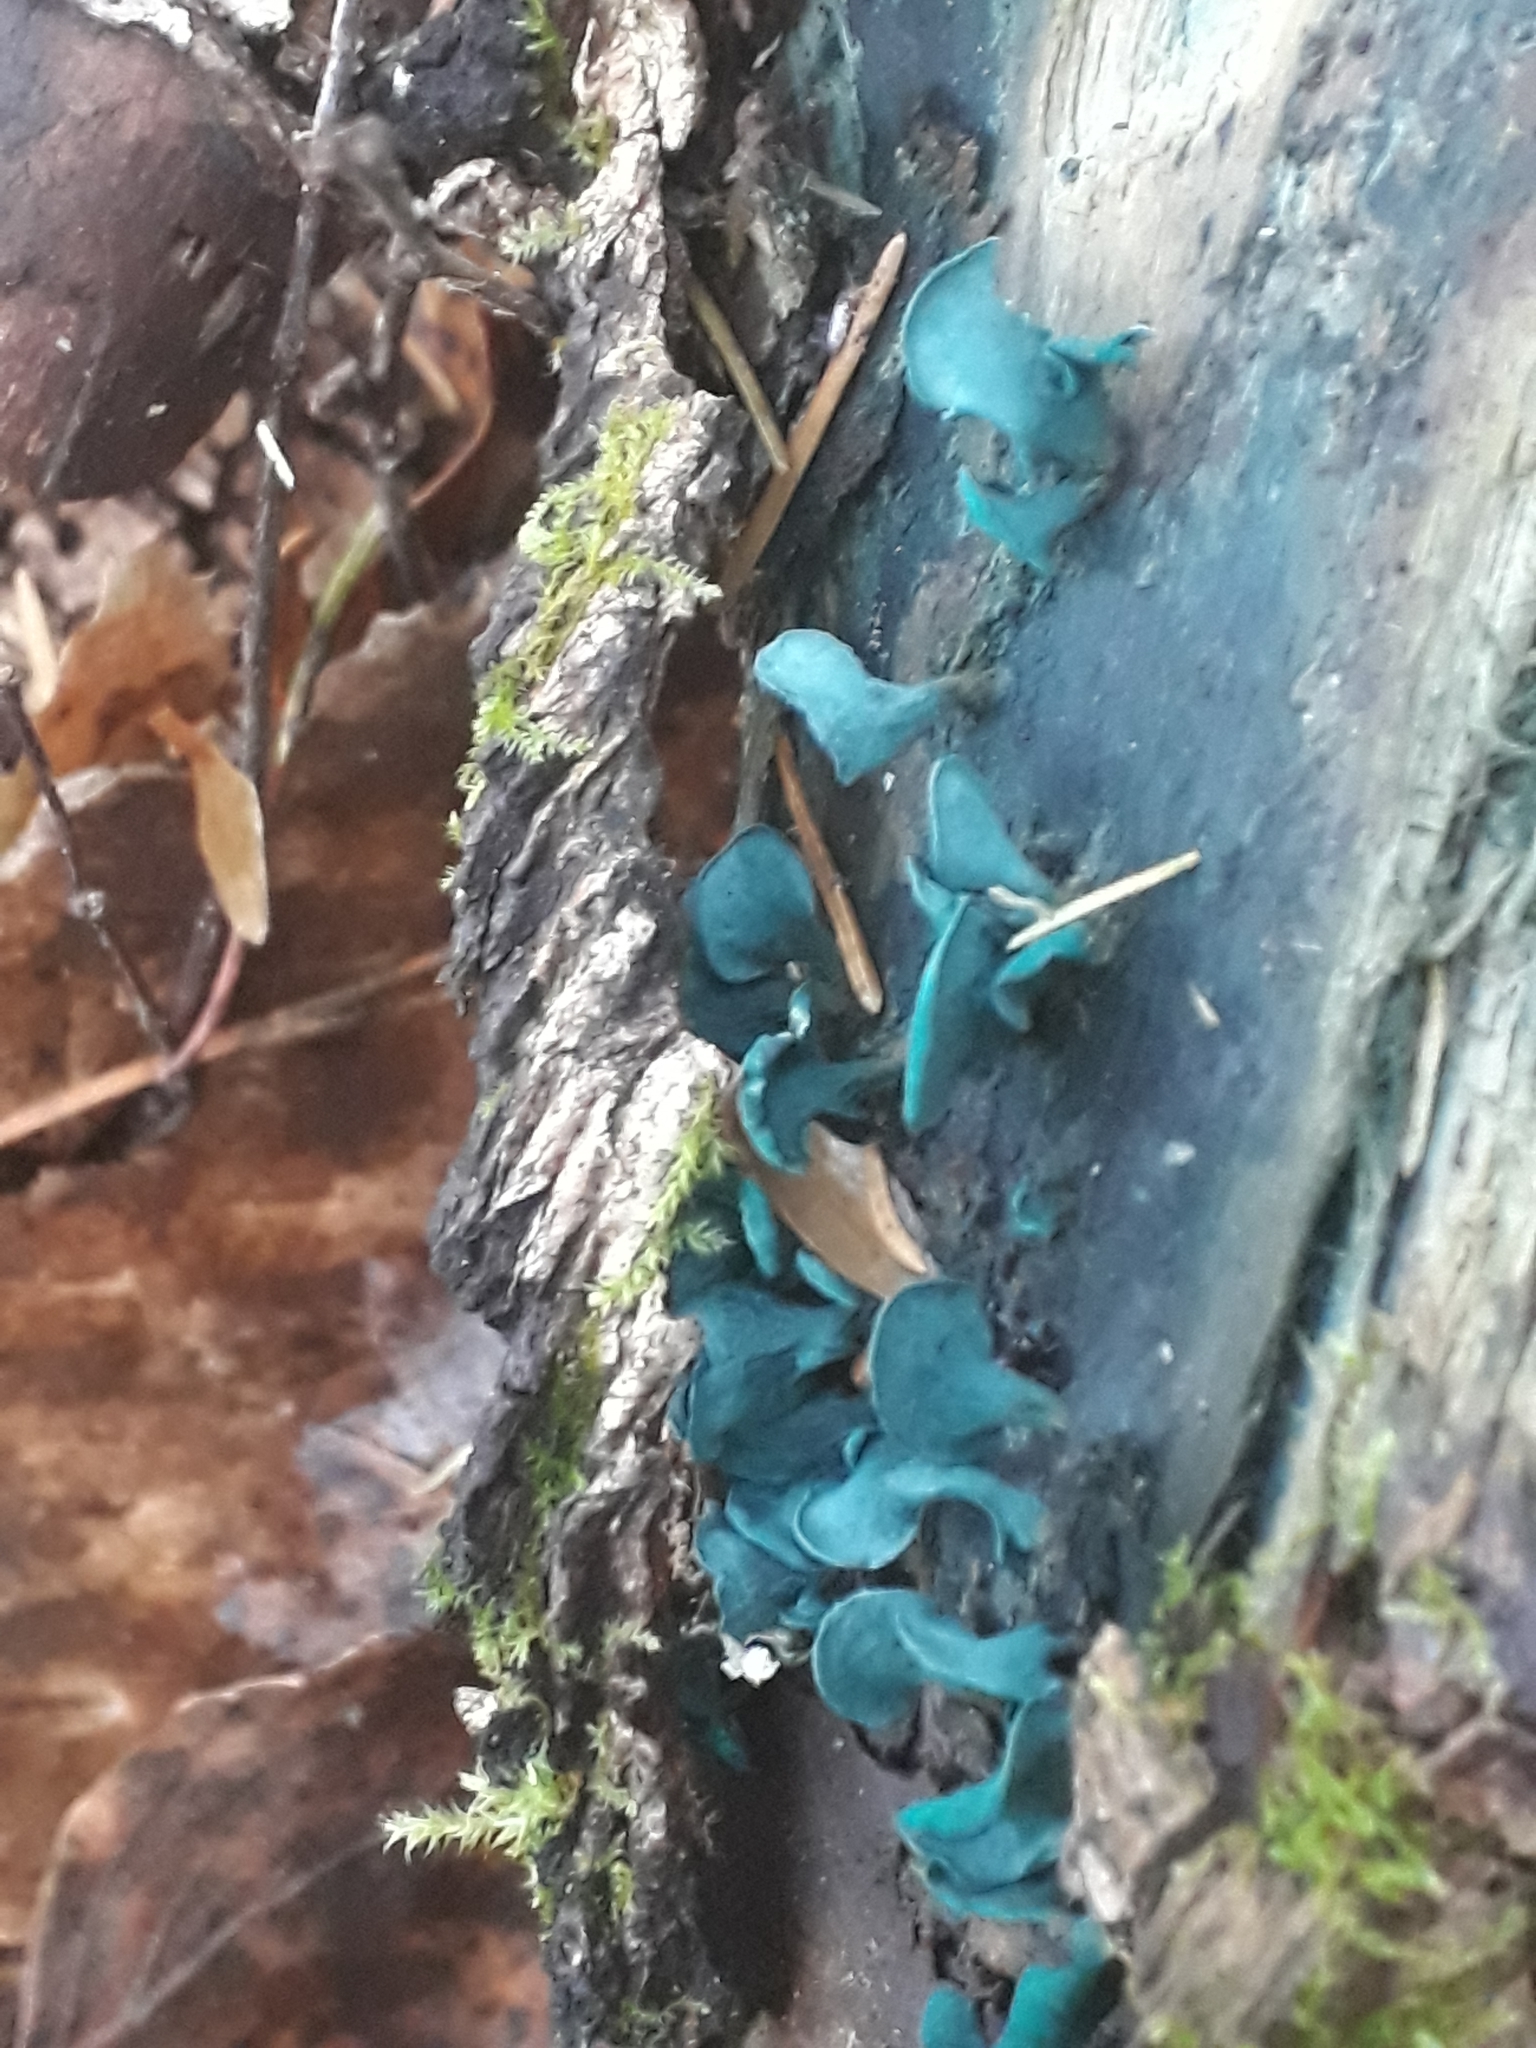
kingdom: Fungi
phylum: Ascomycota
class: Leotiomycetes
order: Helotiales
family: Chlorociboriaceae
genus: Chlorociboria
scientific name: Chlorociboria aeruginascens
